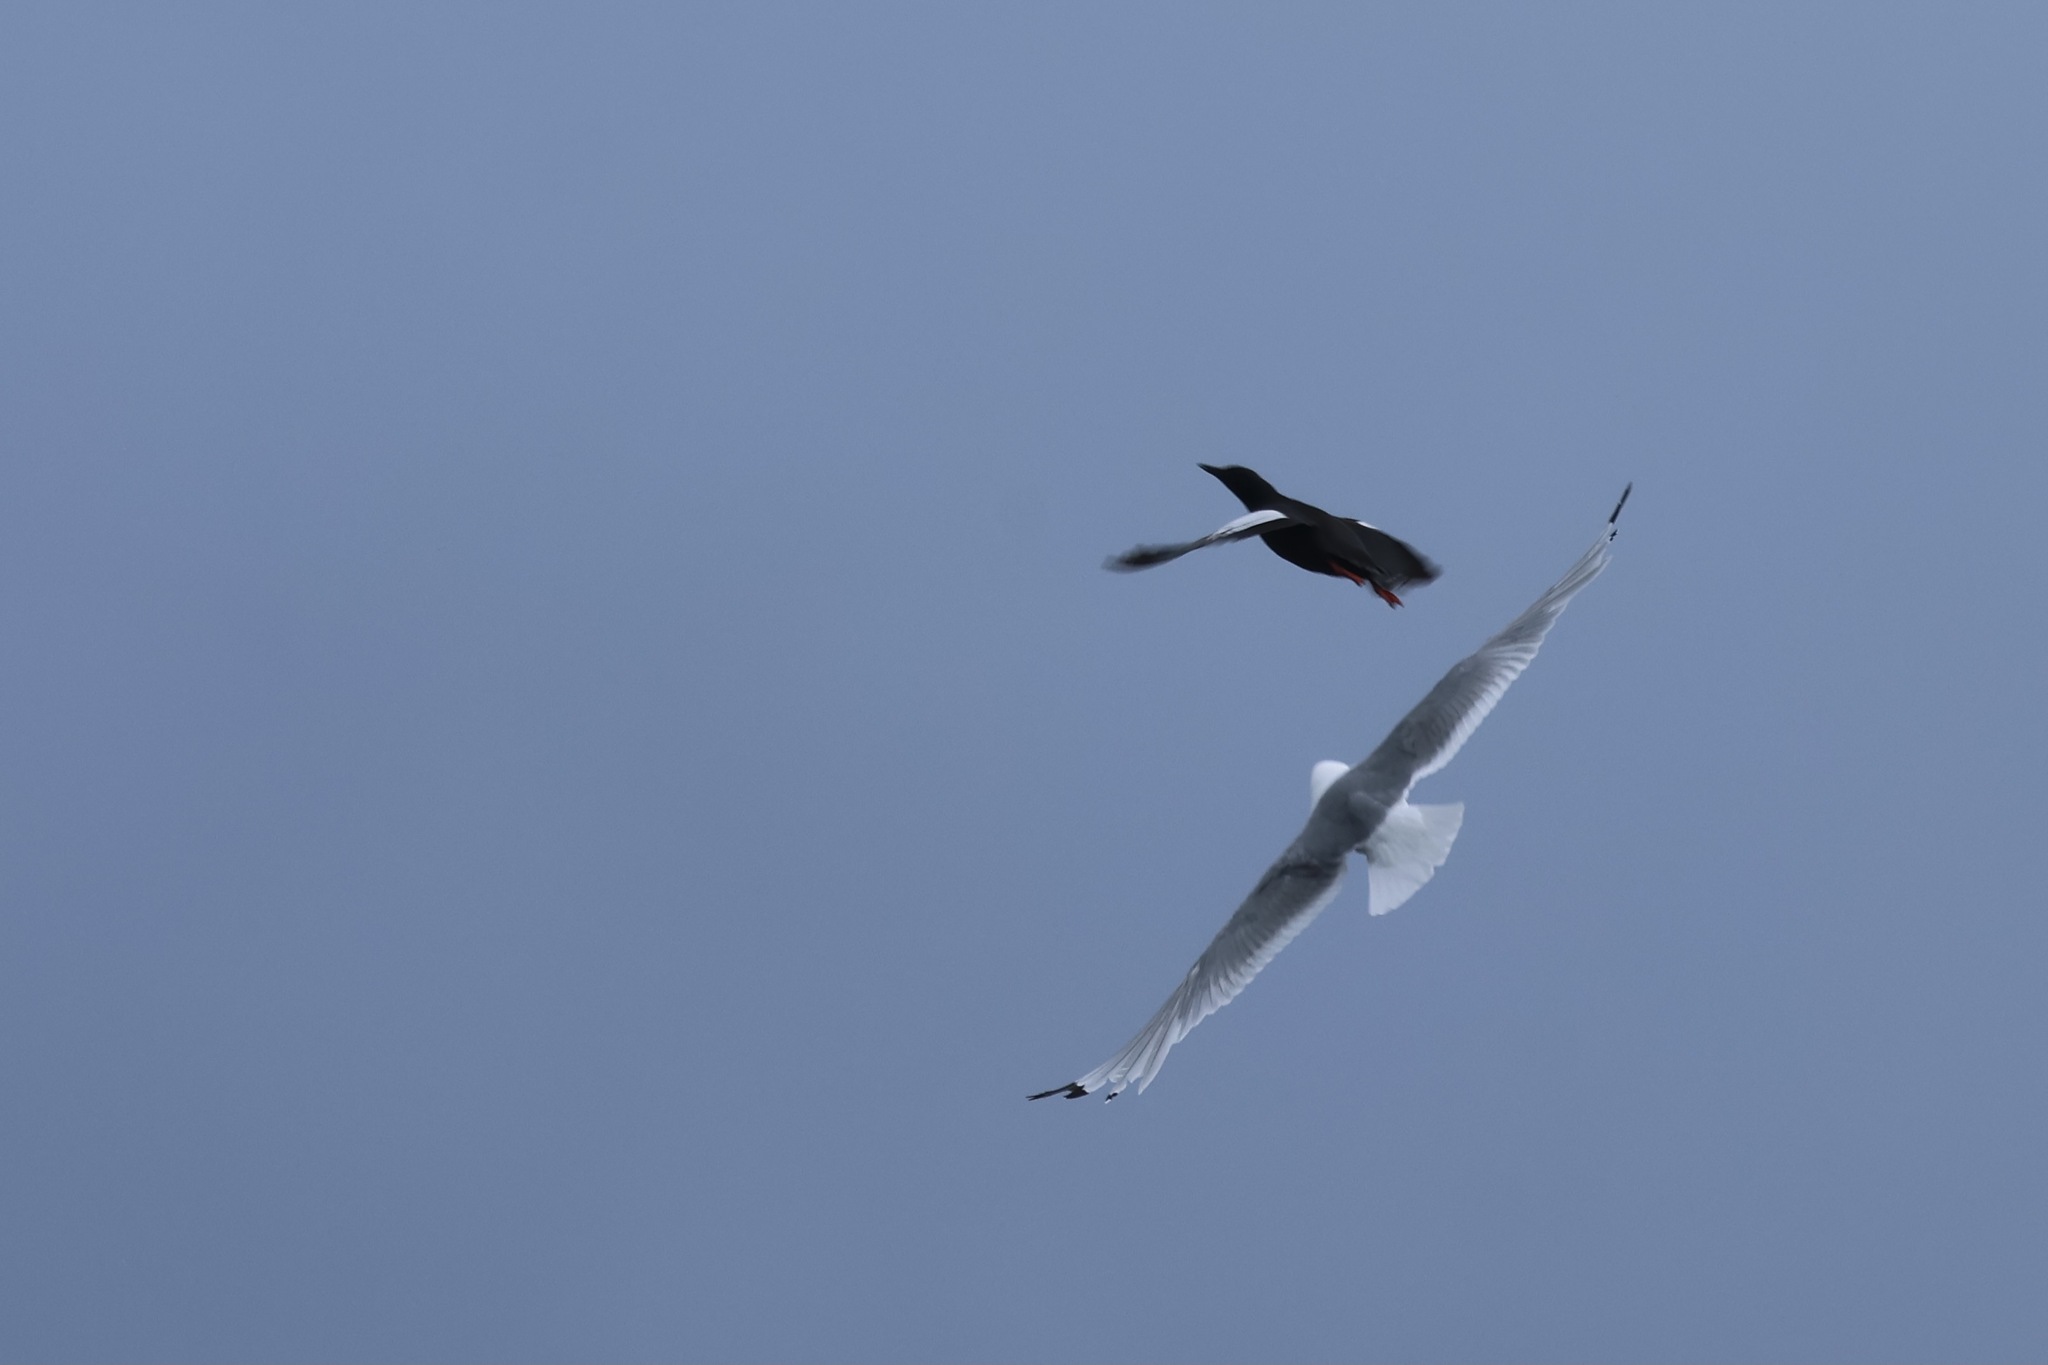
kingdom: Animalia
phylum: Chordata
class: Aves
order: Charadriiformes
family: Alcidae
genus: Cepphus
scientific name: Cepphus grylle
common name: Black guillemot
